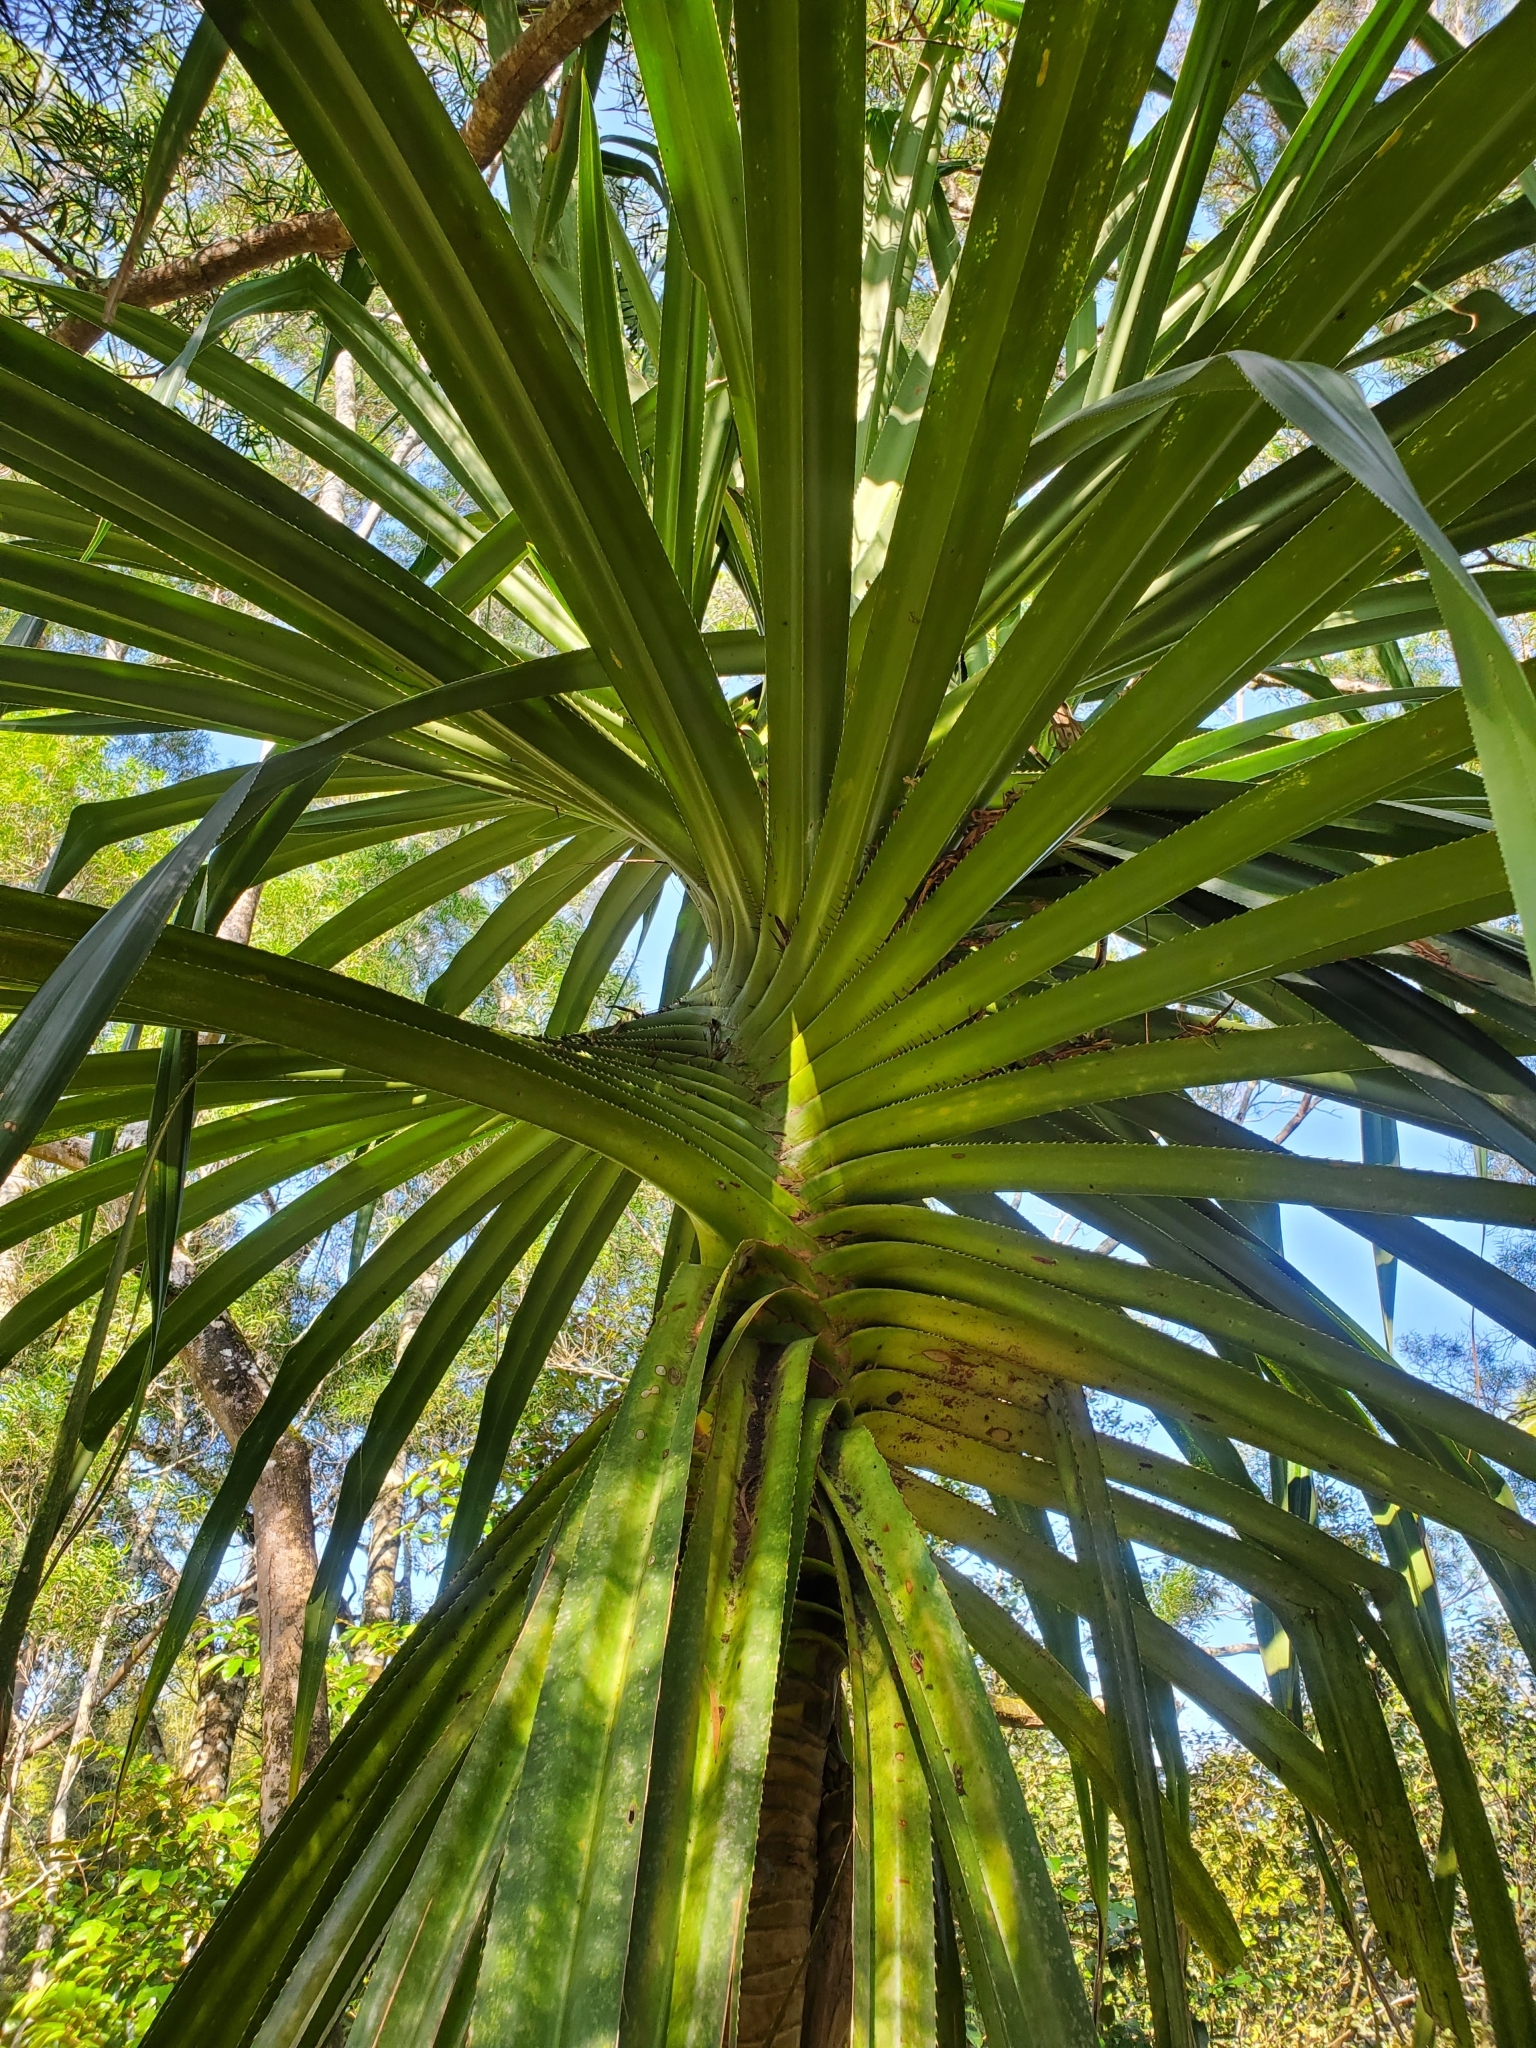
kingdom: Plantae
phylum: Tracheophyta
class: Liliopsida
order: Pandanales
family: Pandanaceae
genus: Pandanus
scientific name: Pandanus tectorius
